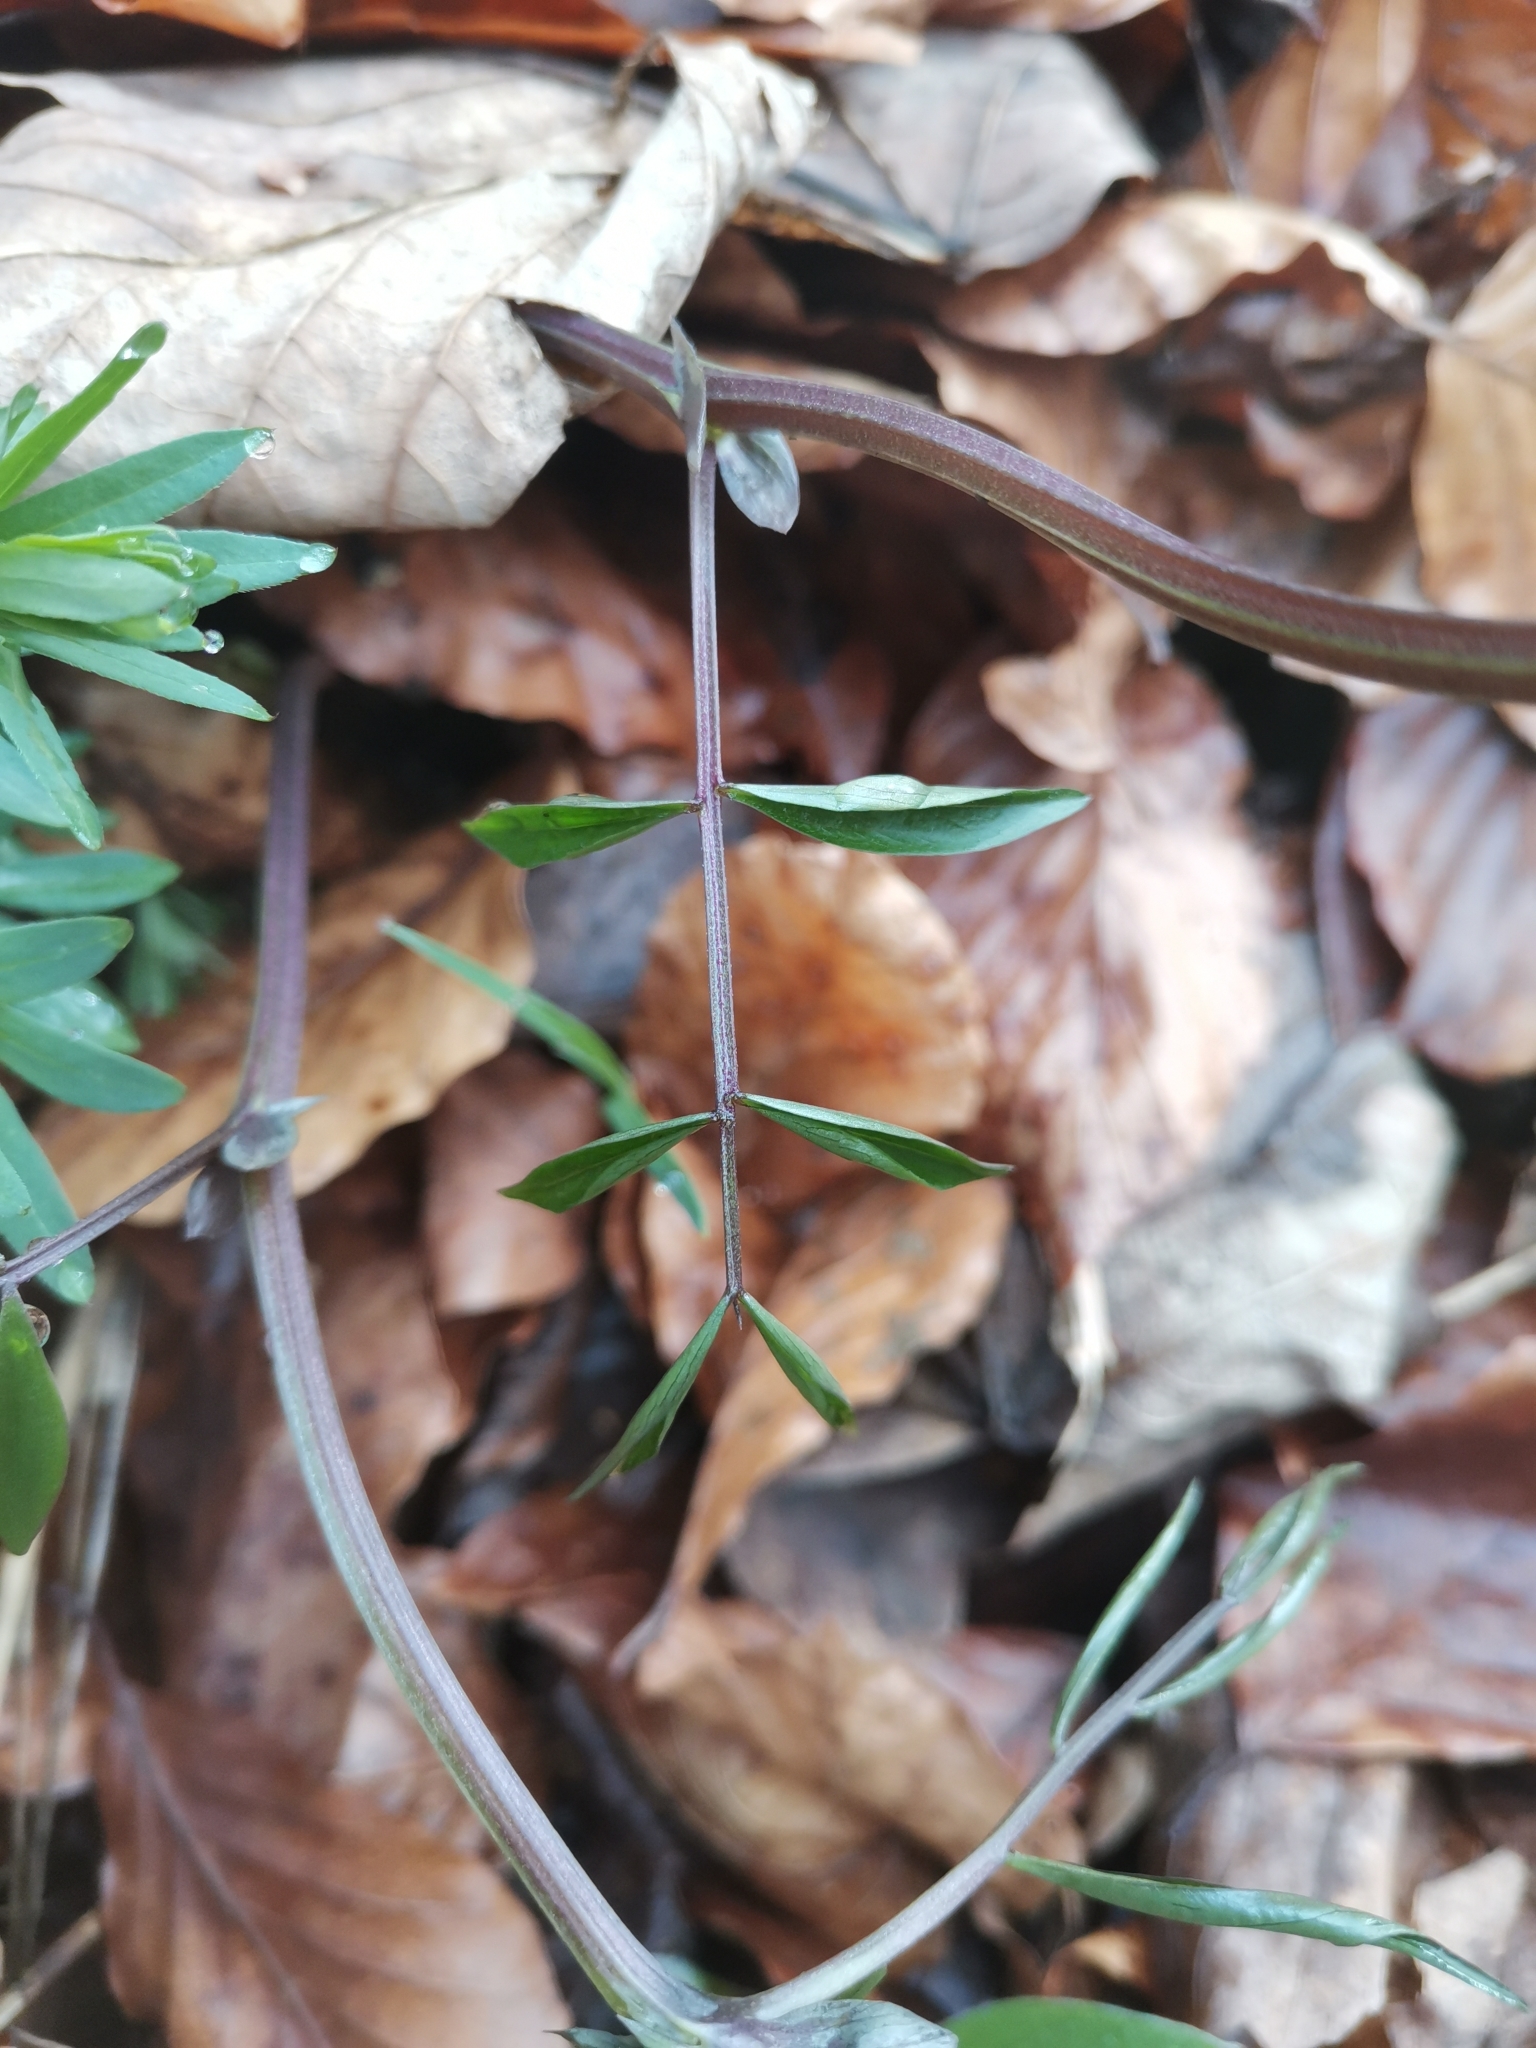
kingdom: Plantae
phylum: Tracheophyta
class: Magnoliopsida
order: Fabales
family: Fabaceae
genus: Lathyrus
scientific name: Lathyrus vernus
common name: Spring pea
